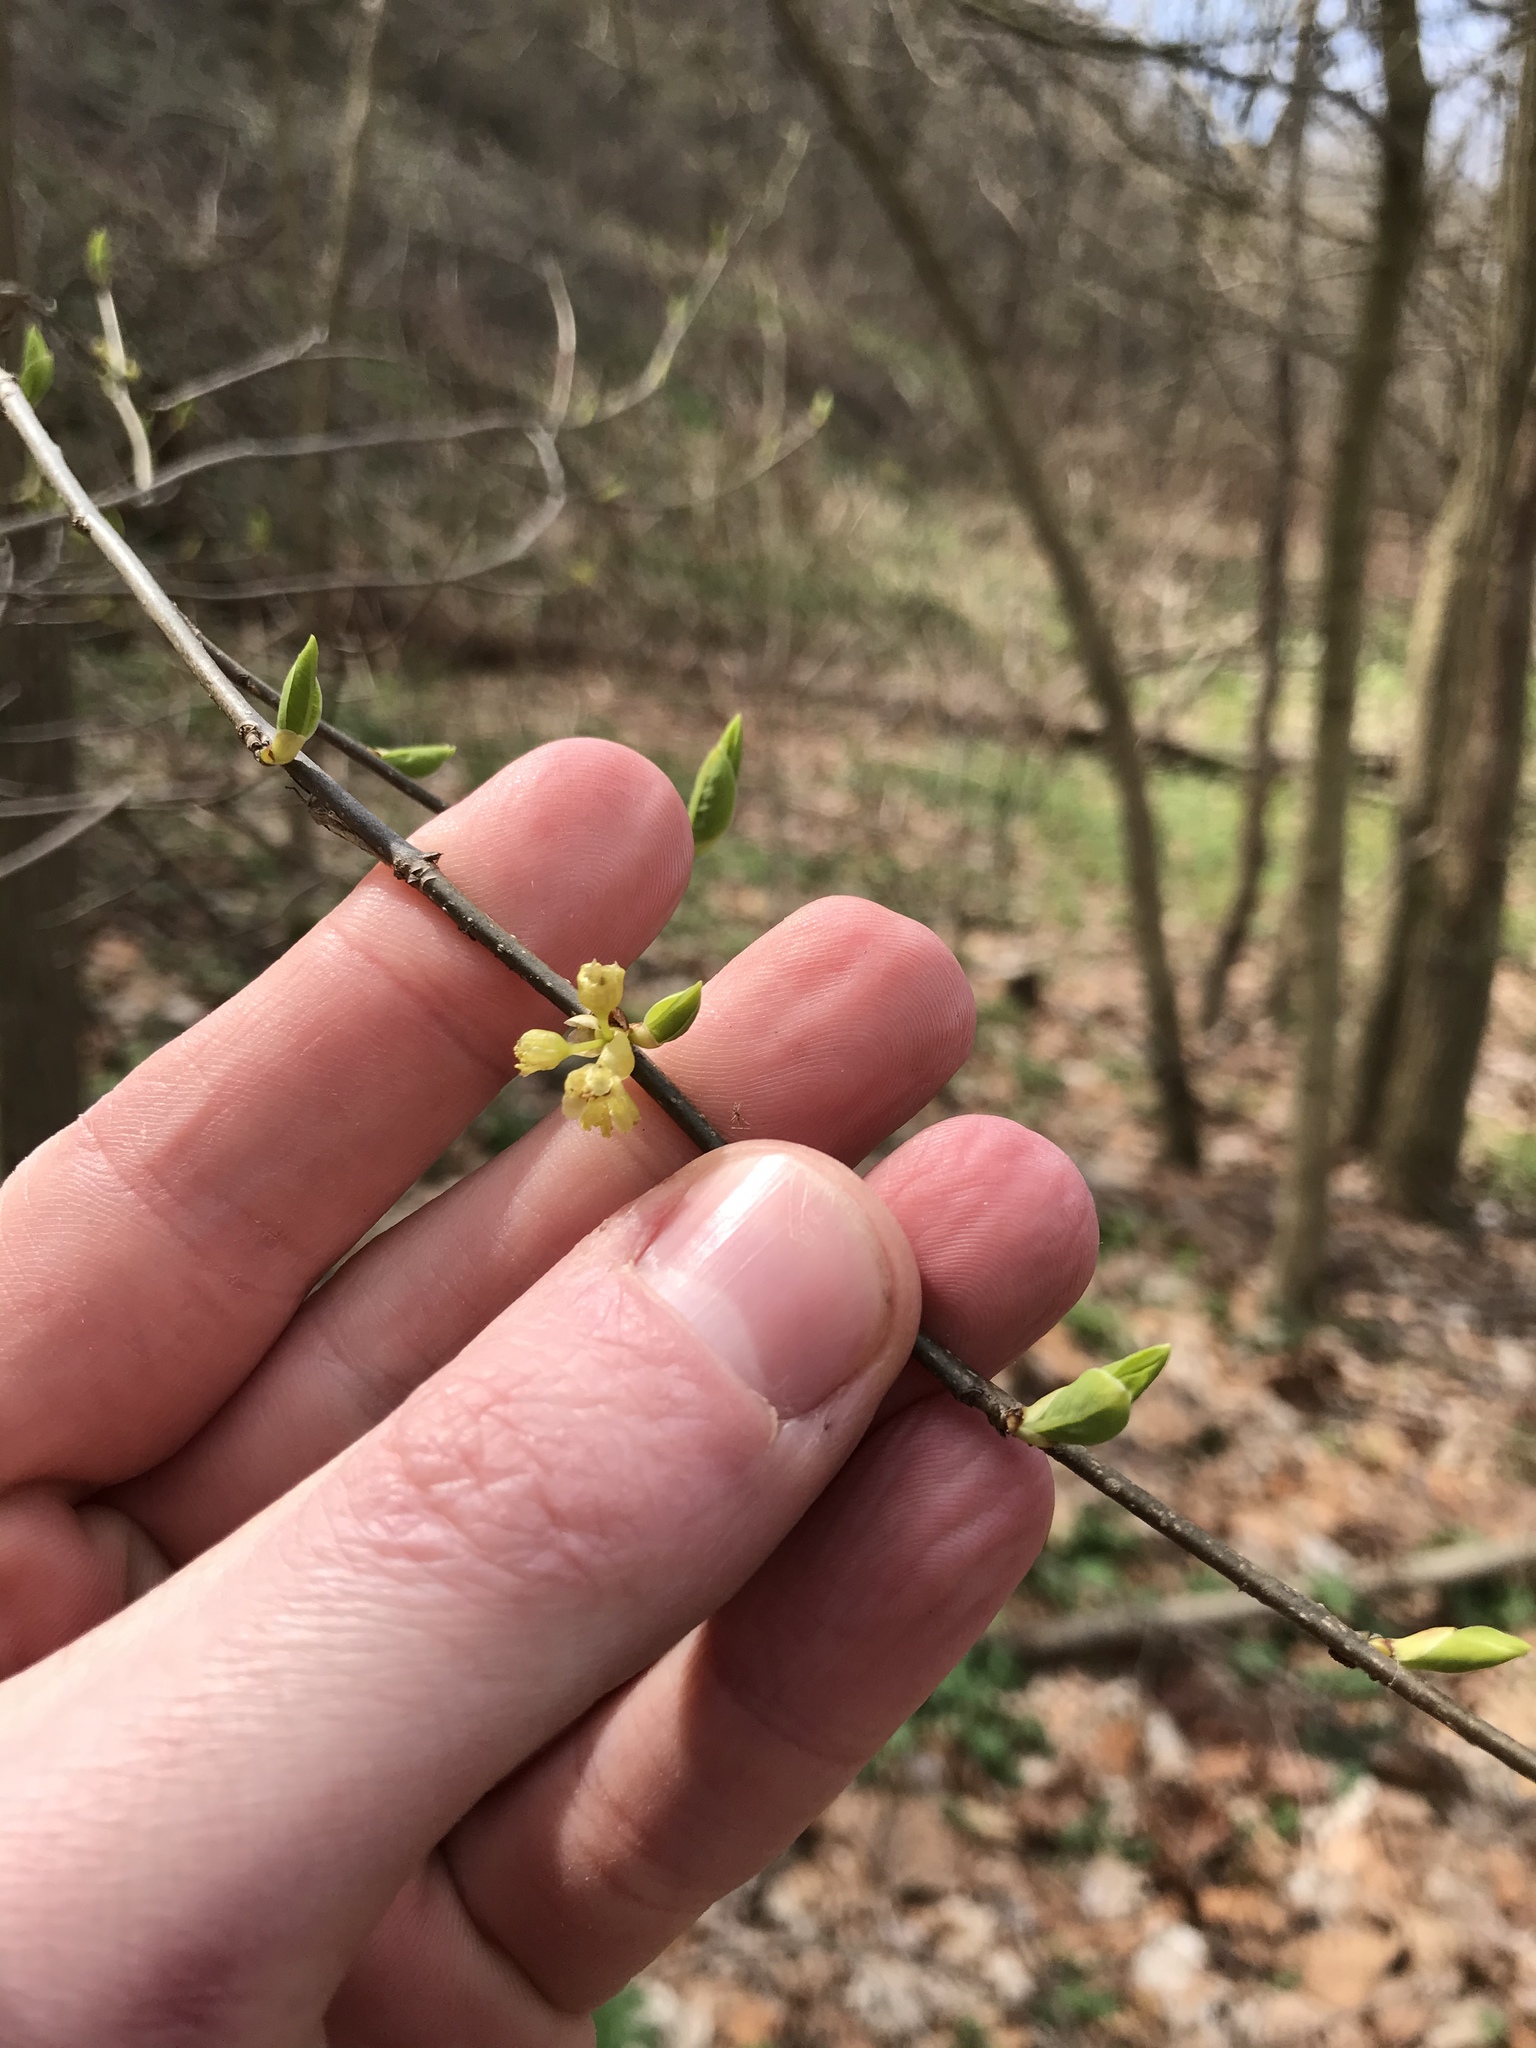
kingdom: Plantae
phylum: Tracheophyta
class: Magnoliopsida
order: Laurales
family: Lauraceae
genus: Lindera
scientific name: Lindera benzoin
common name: Spicebush
